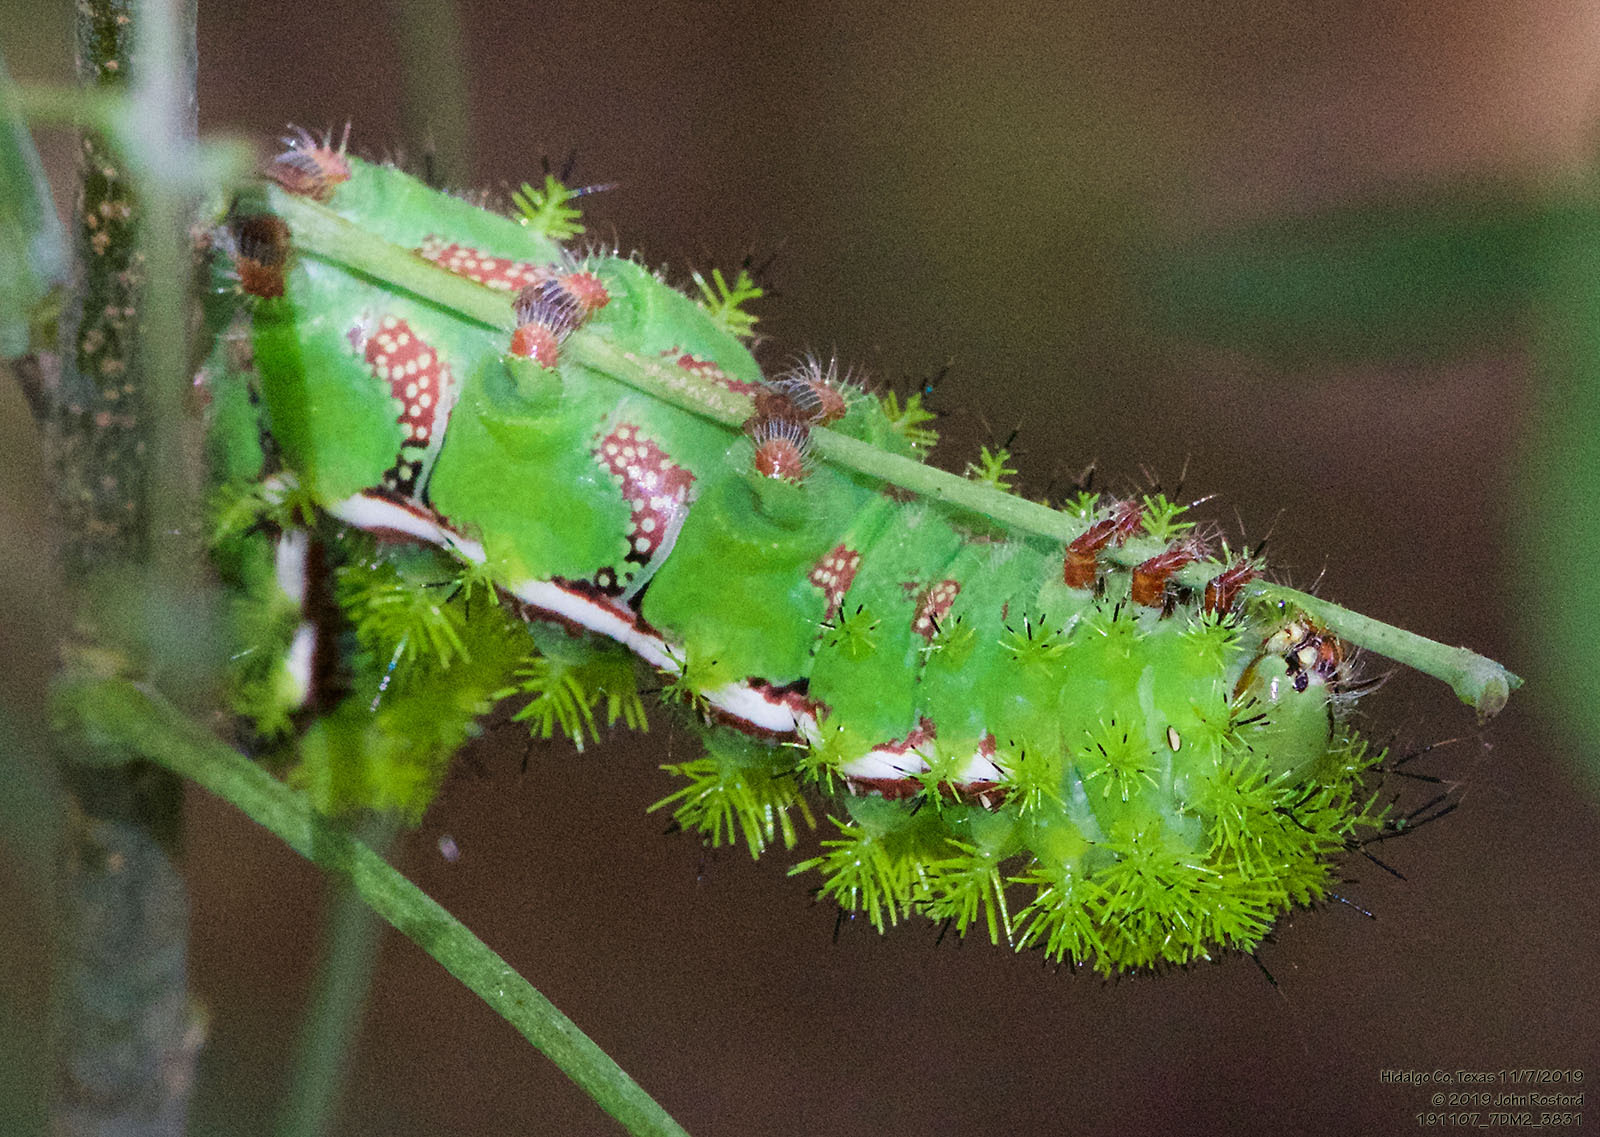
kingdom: Animalia
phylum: Arthropoda
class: Insecta
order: Lepidoptera
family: Saturniidae
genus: Automeris
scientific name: Automeris io
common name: Io moth
